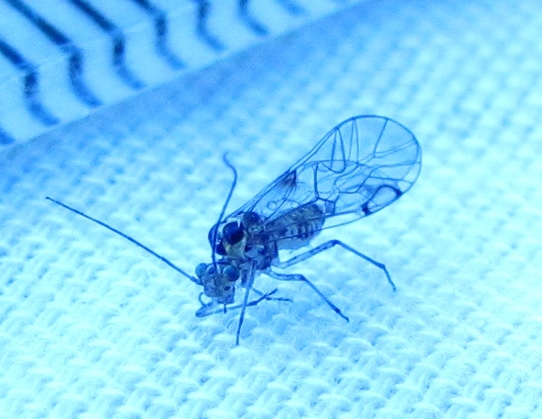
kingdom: Animalia
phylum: Arthropoda
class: Insecta
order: Psocodea
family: Dasydemellidae
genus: Teliapsocus
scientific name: Teliapsocus conterminus
